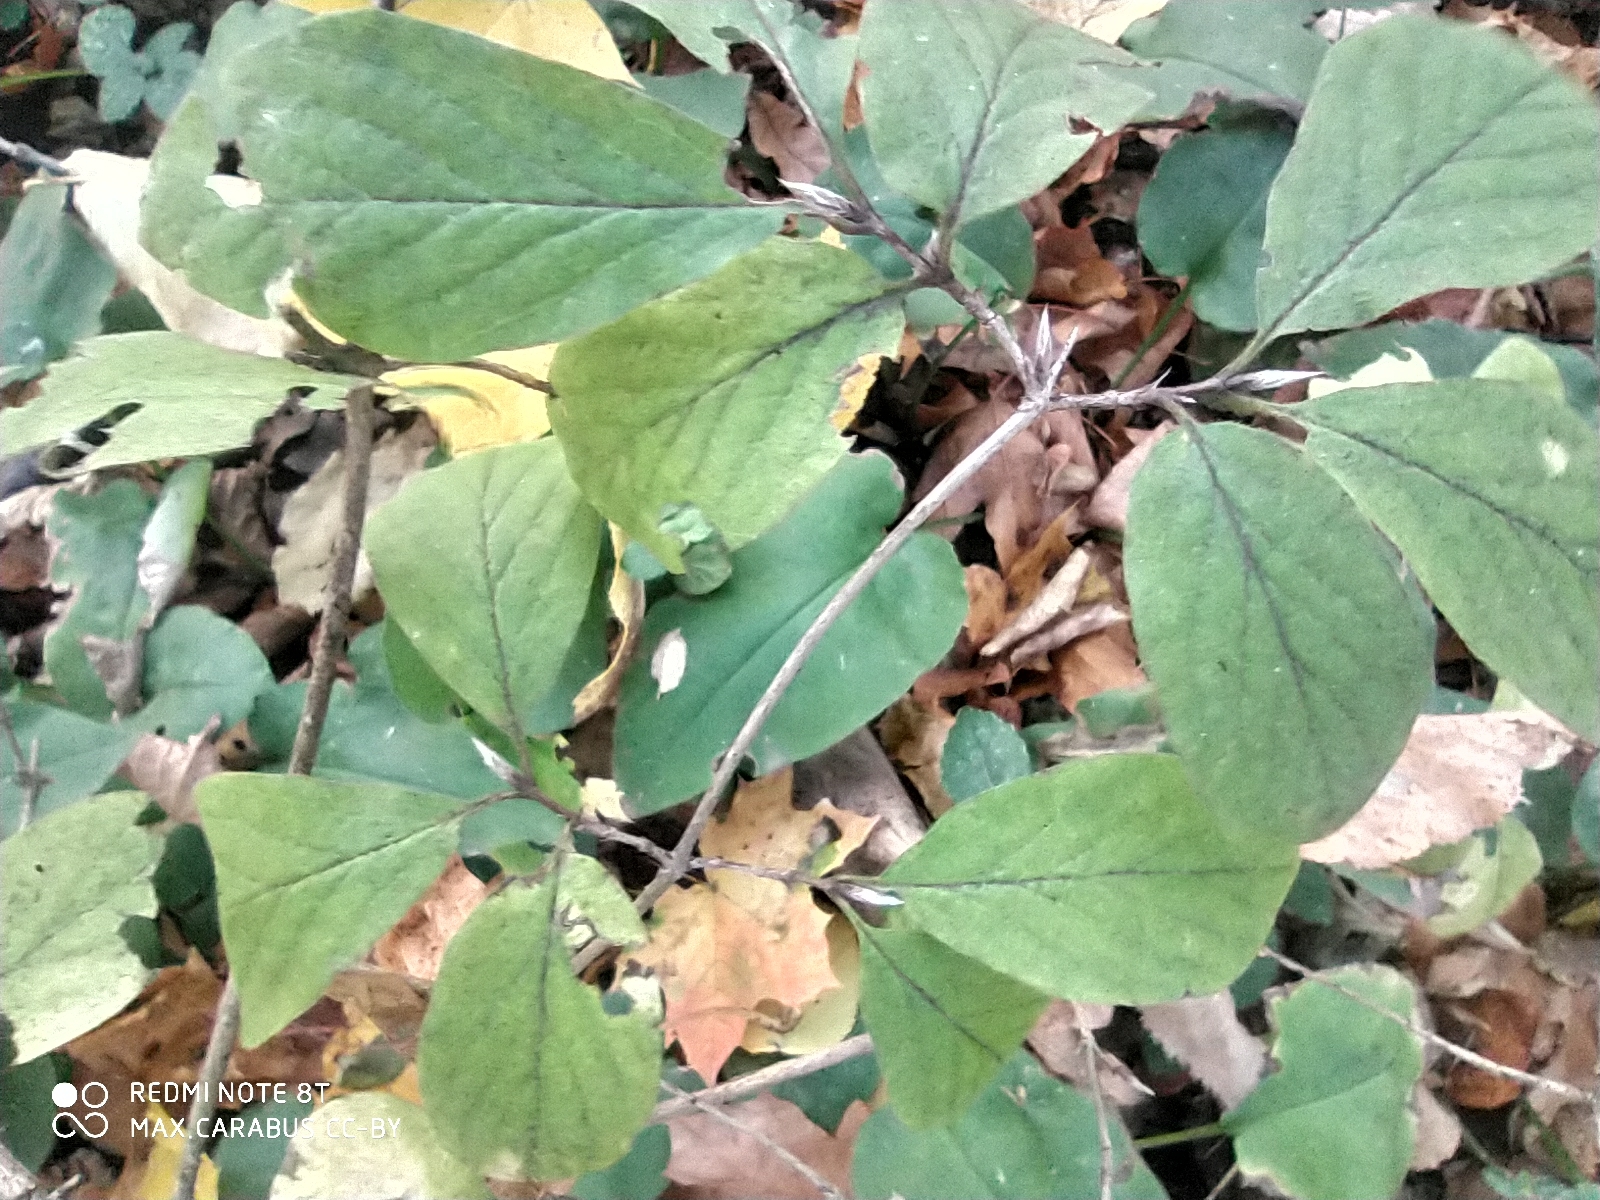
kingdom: Plantae
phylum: Tracheophyta
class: Magnoliopsida
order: Dipsacales
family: Caprifoliaceae
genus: Lonicera
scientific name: Lonicera xylosteum
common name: Fly honeysuckle
